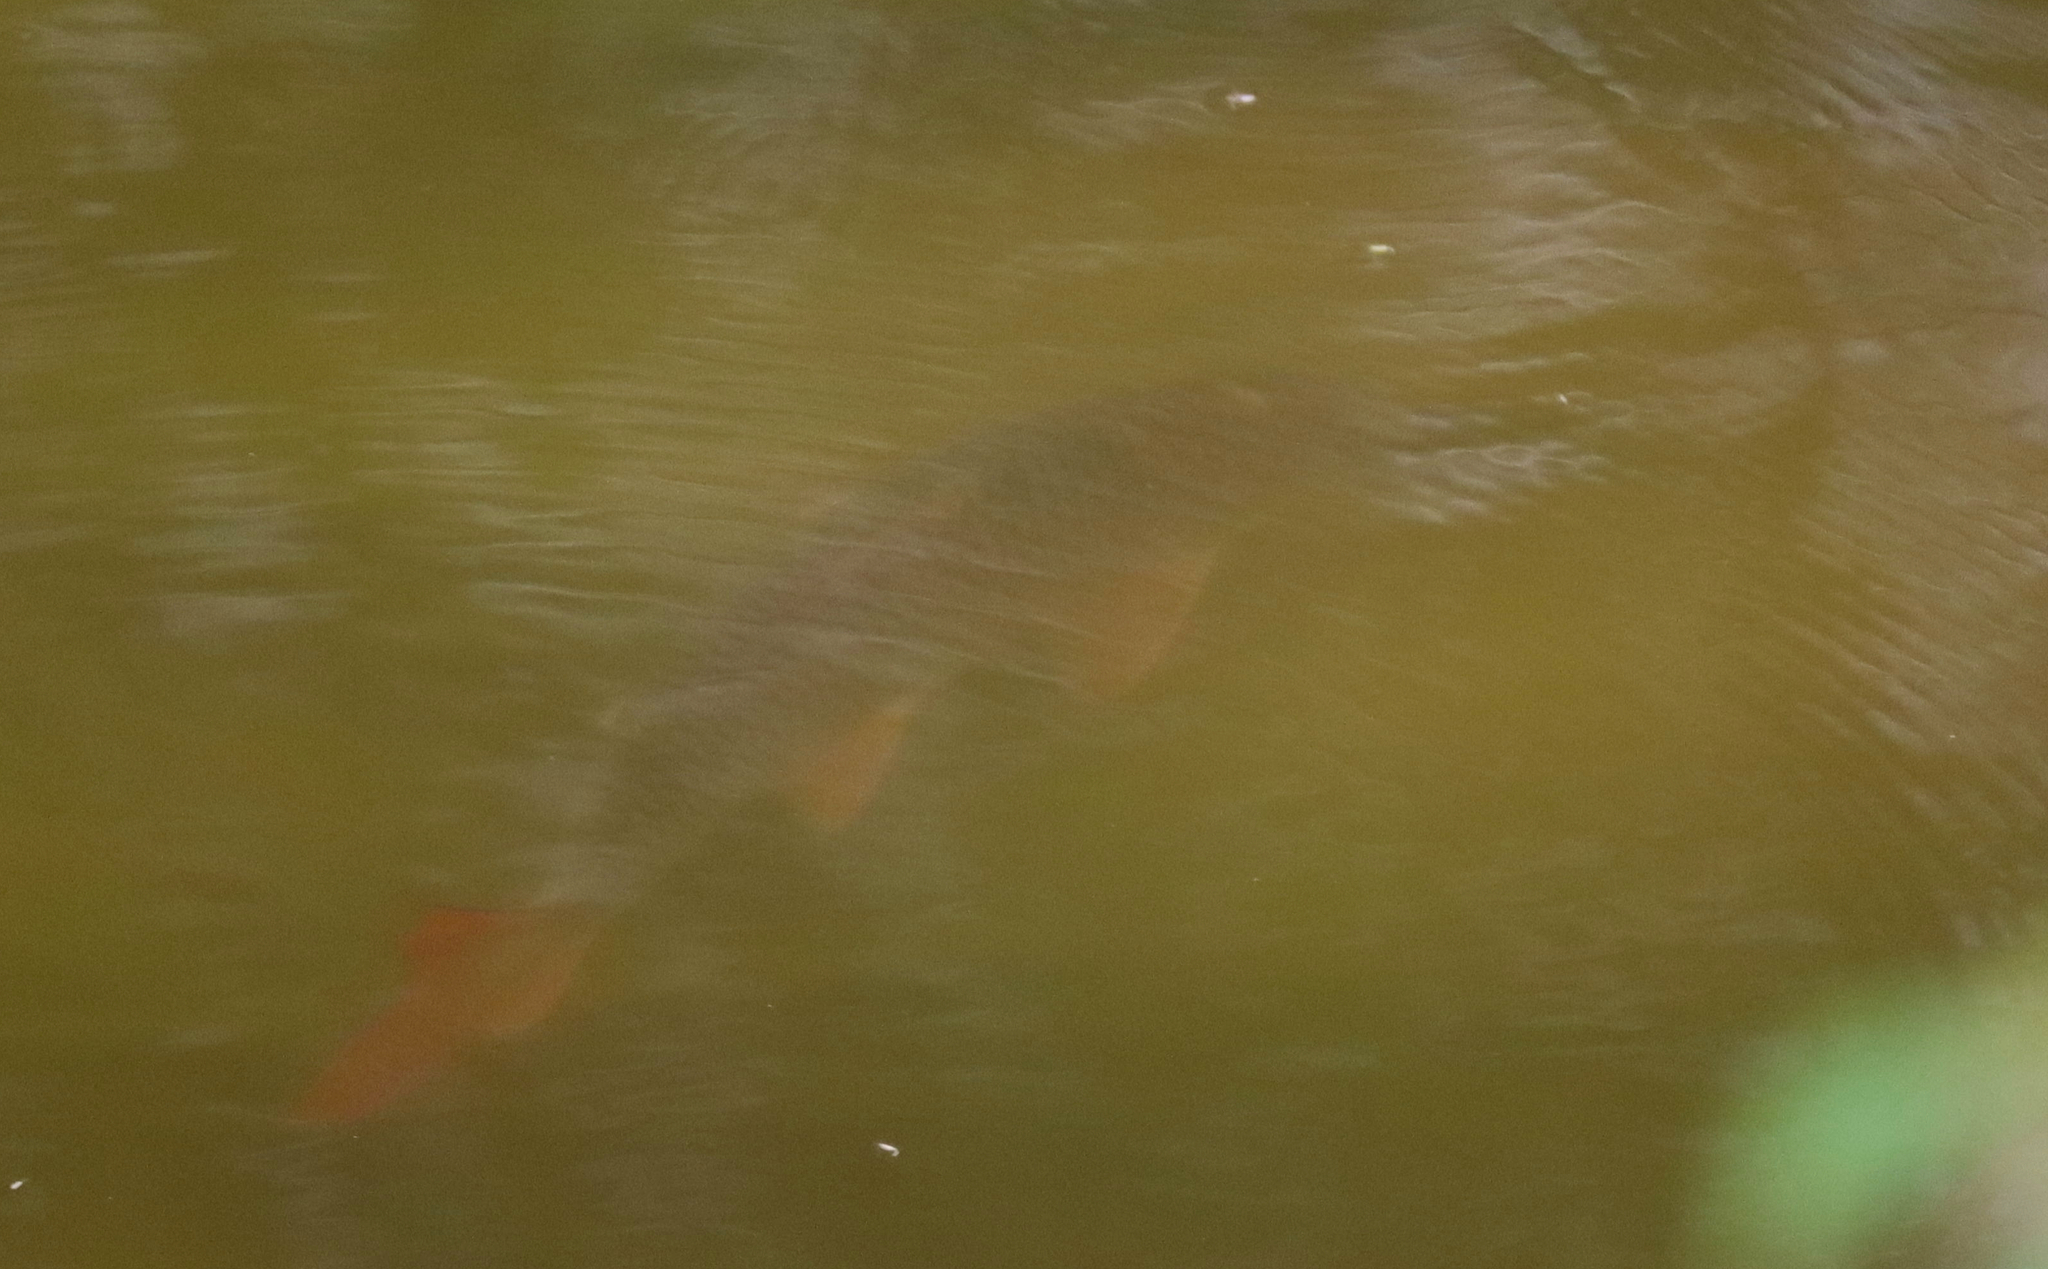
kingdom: Animalia
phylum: Chordata
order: Cypriniformes
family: Catostomidae
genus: Moxostoma
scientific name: Moxostoma macrolepidotum
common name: Shorthead redhorse
